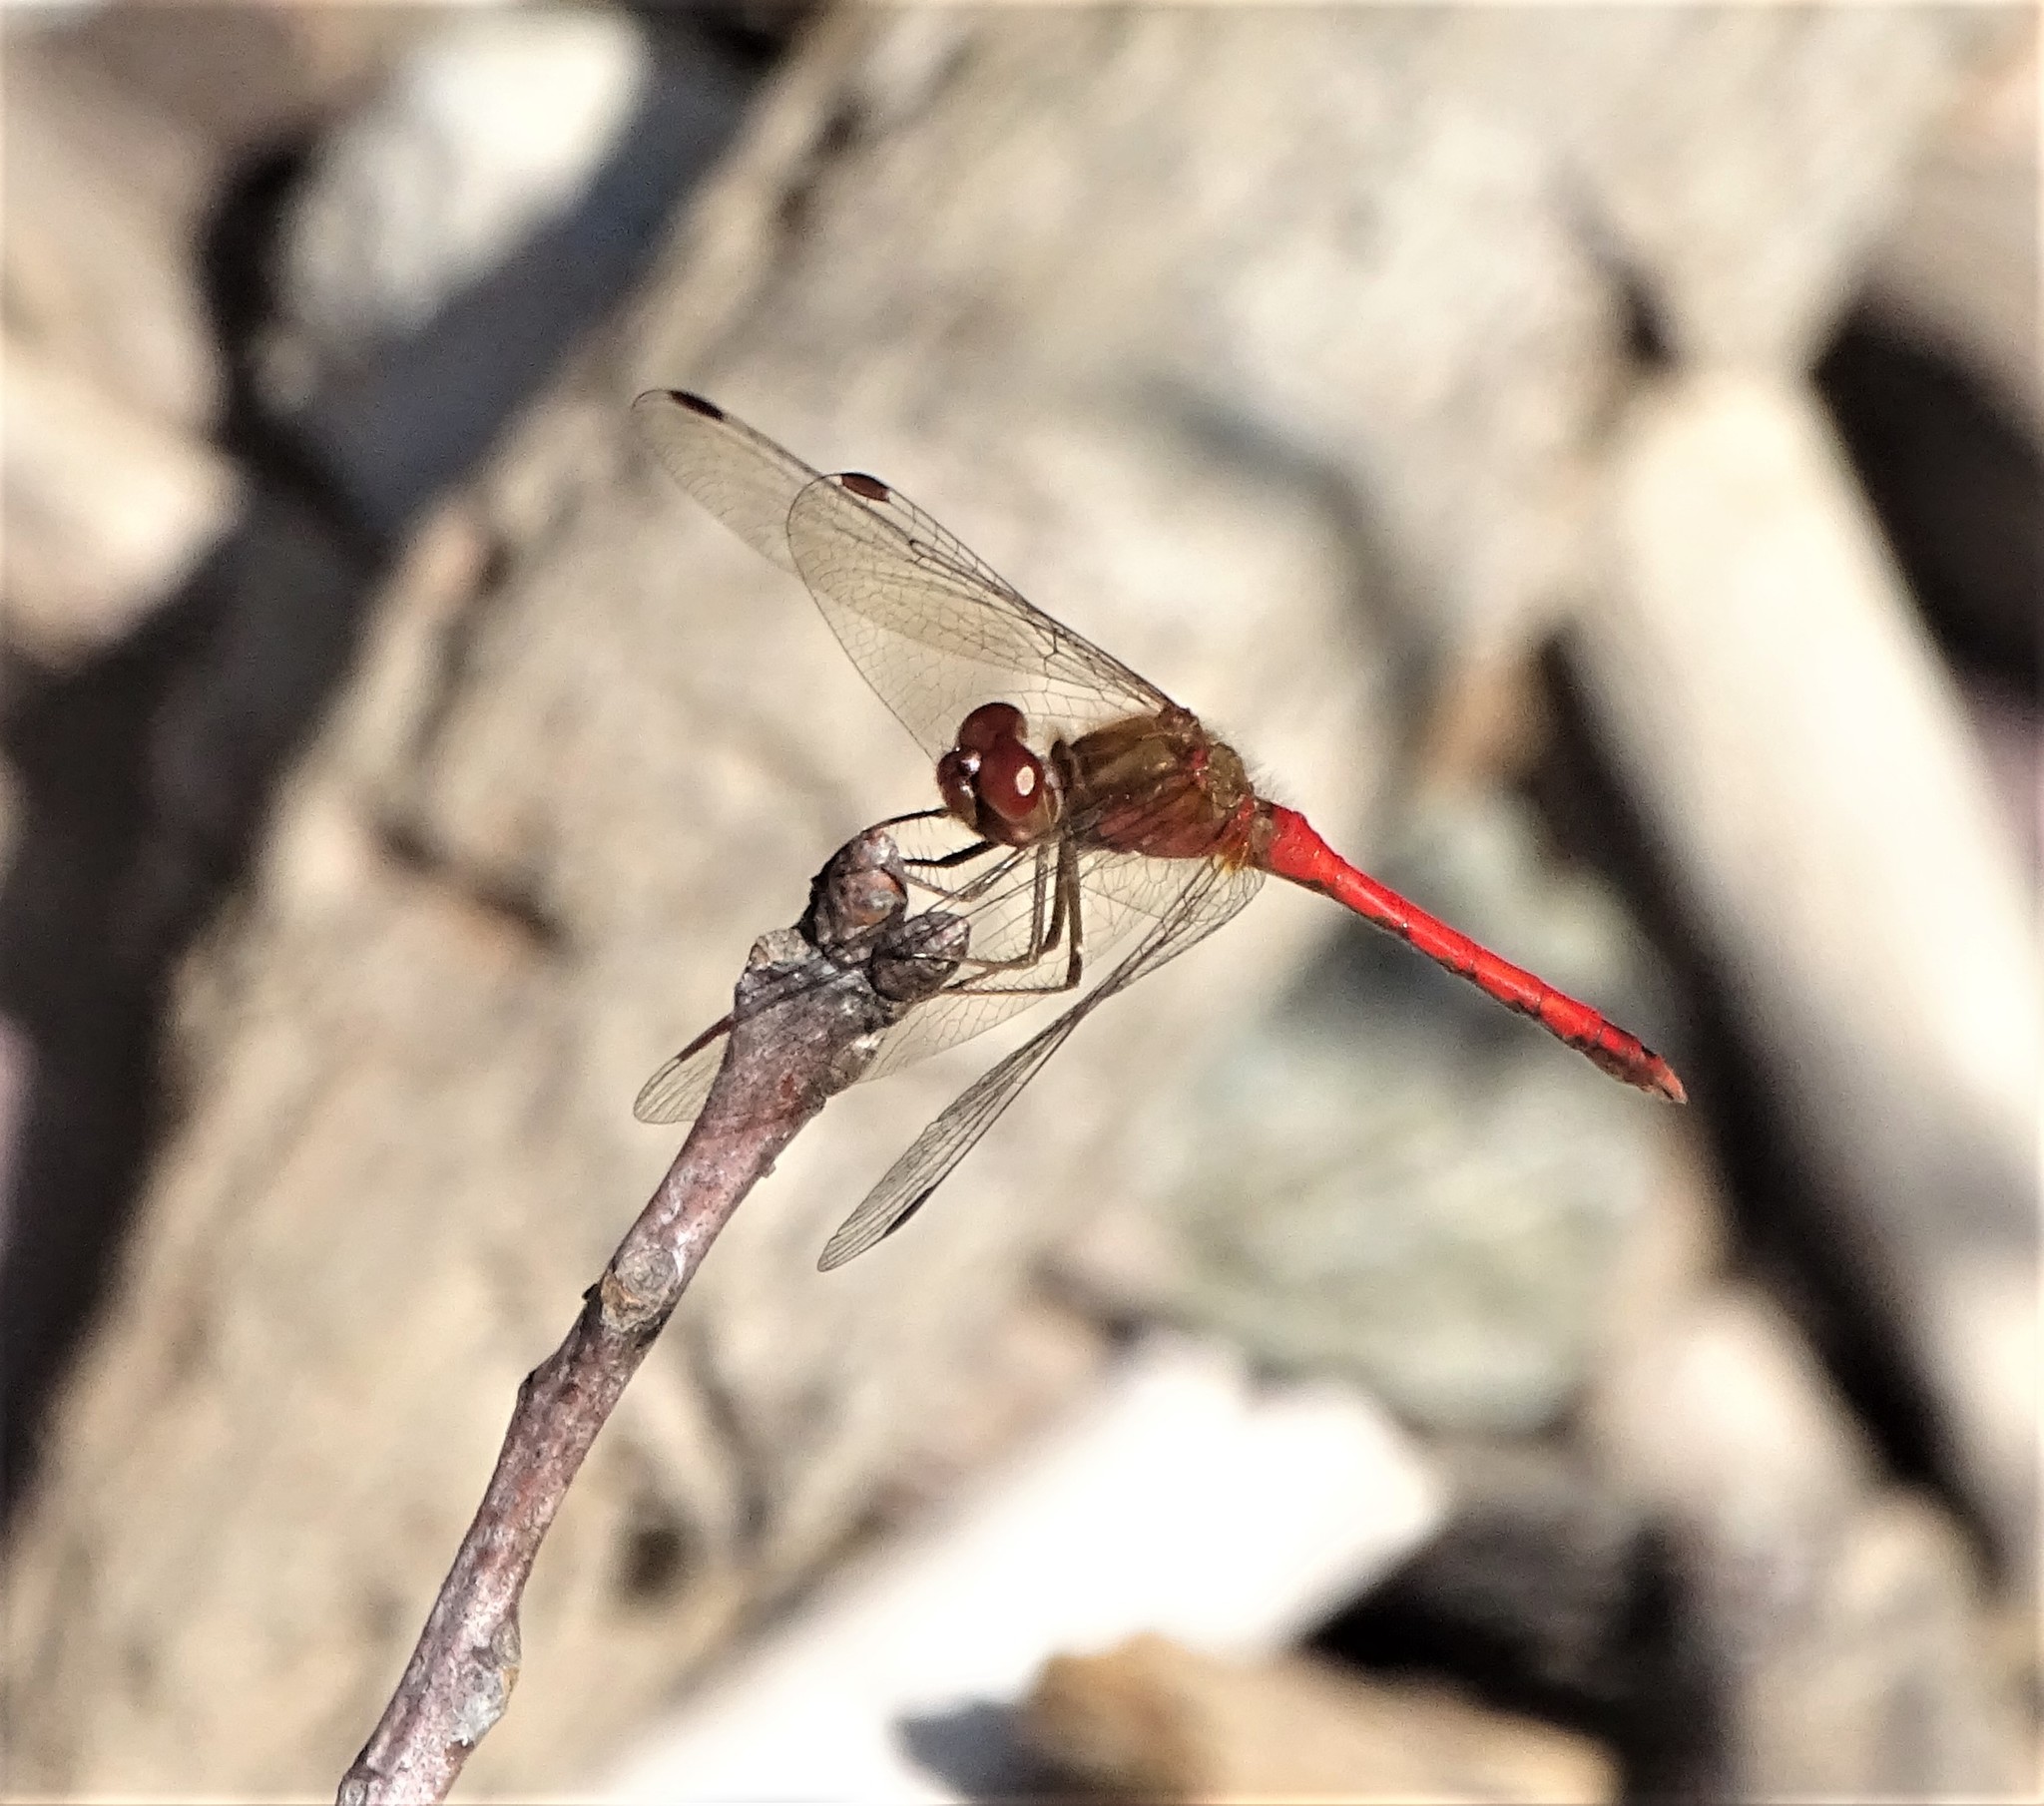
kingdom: Animalia
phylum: Arthropoda
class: Insecta
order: Odonata
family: Libellulidae
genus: Sympetrum
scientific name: Sympetrum vicinum
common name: Autumn meadowhawk
